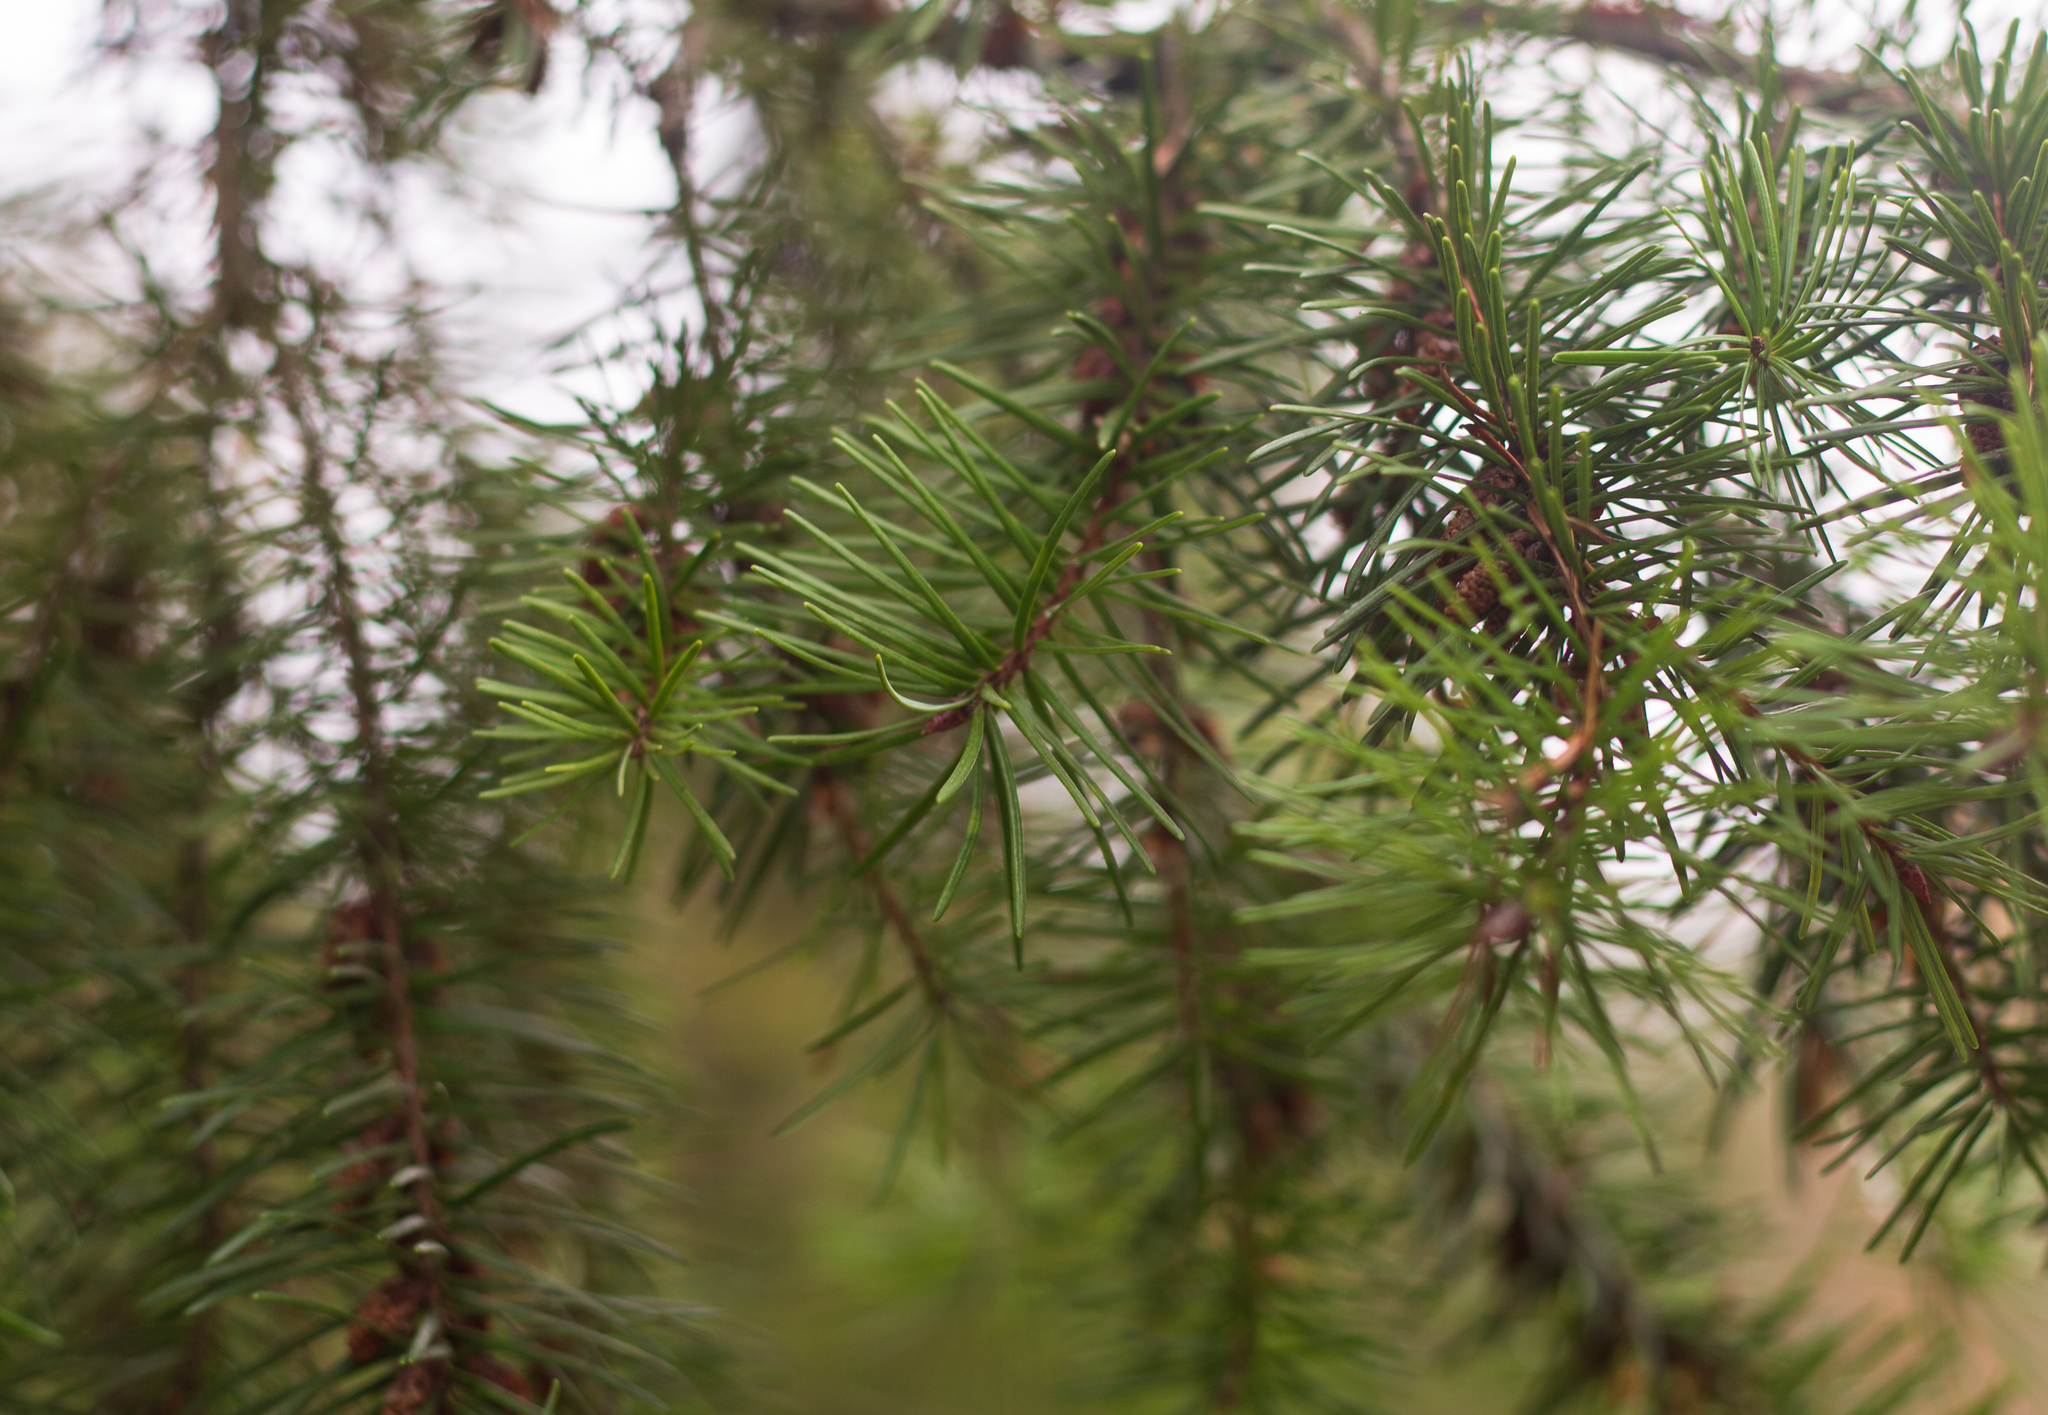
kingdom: Plantae
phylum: Tracheophyta
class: Pinopsida
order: Pinales
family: Pinaceae
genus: Pseudotsuga
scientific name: Pseudotsuga menziesii
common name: Douglas fir
